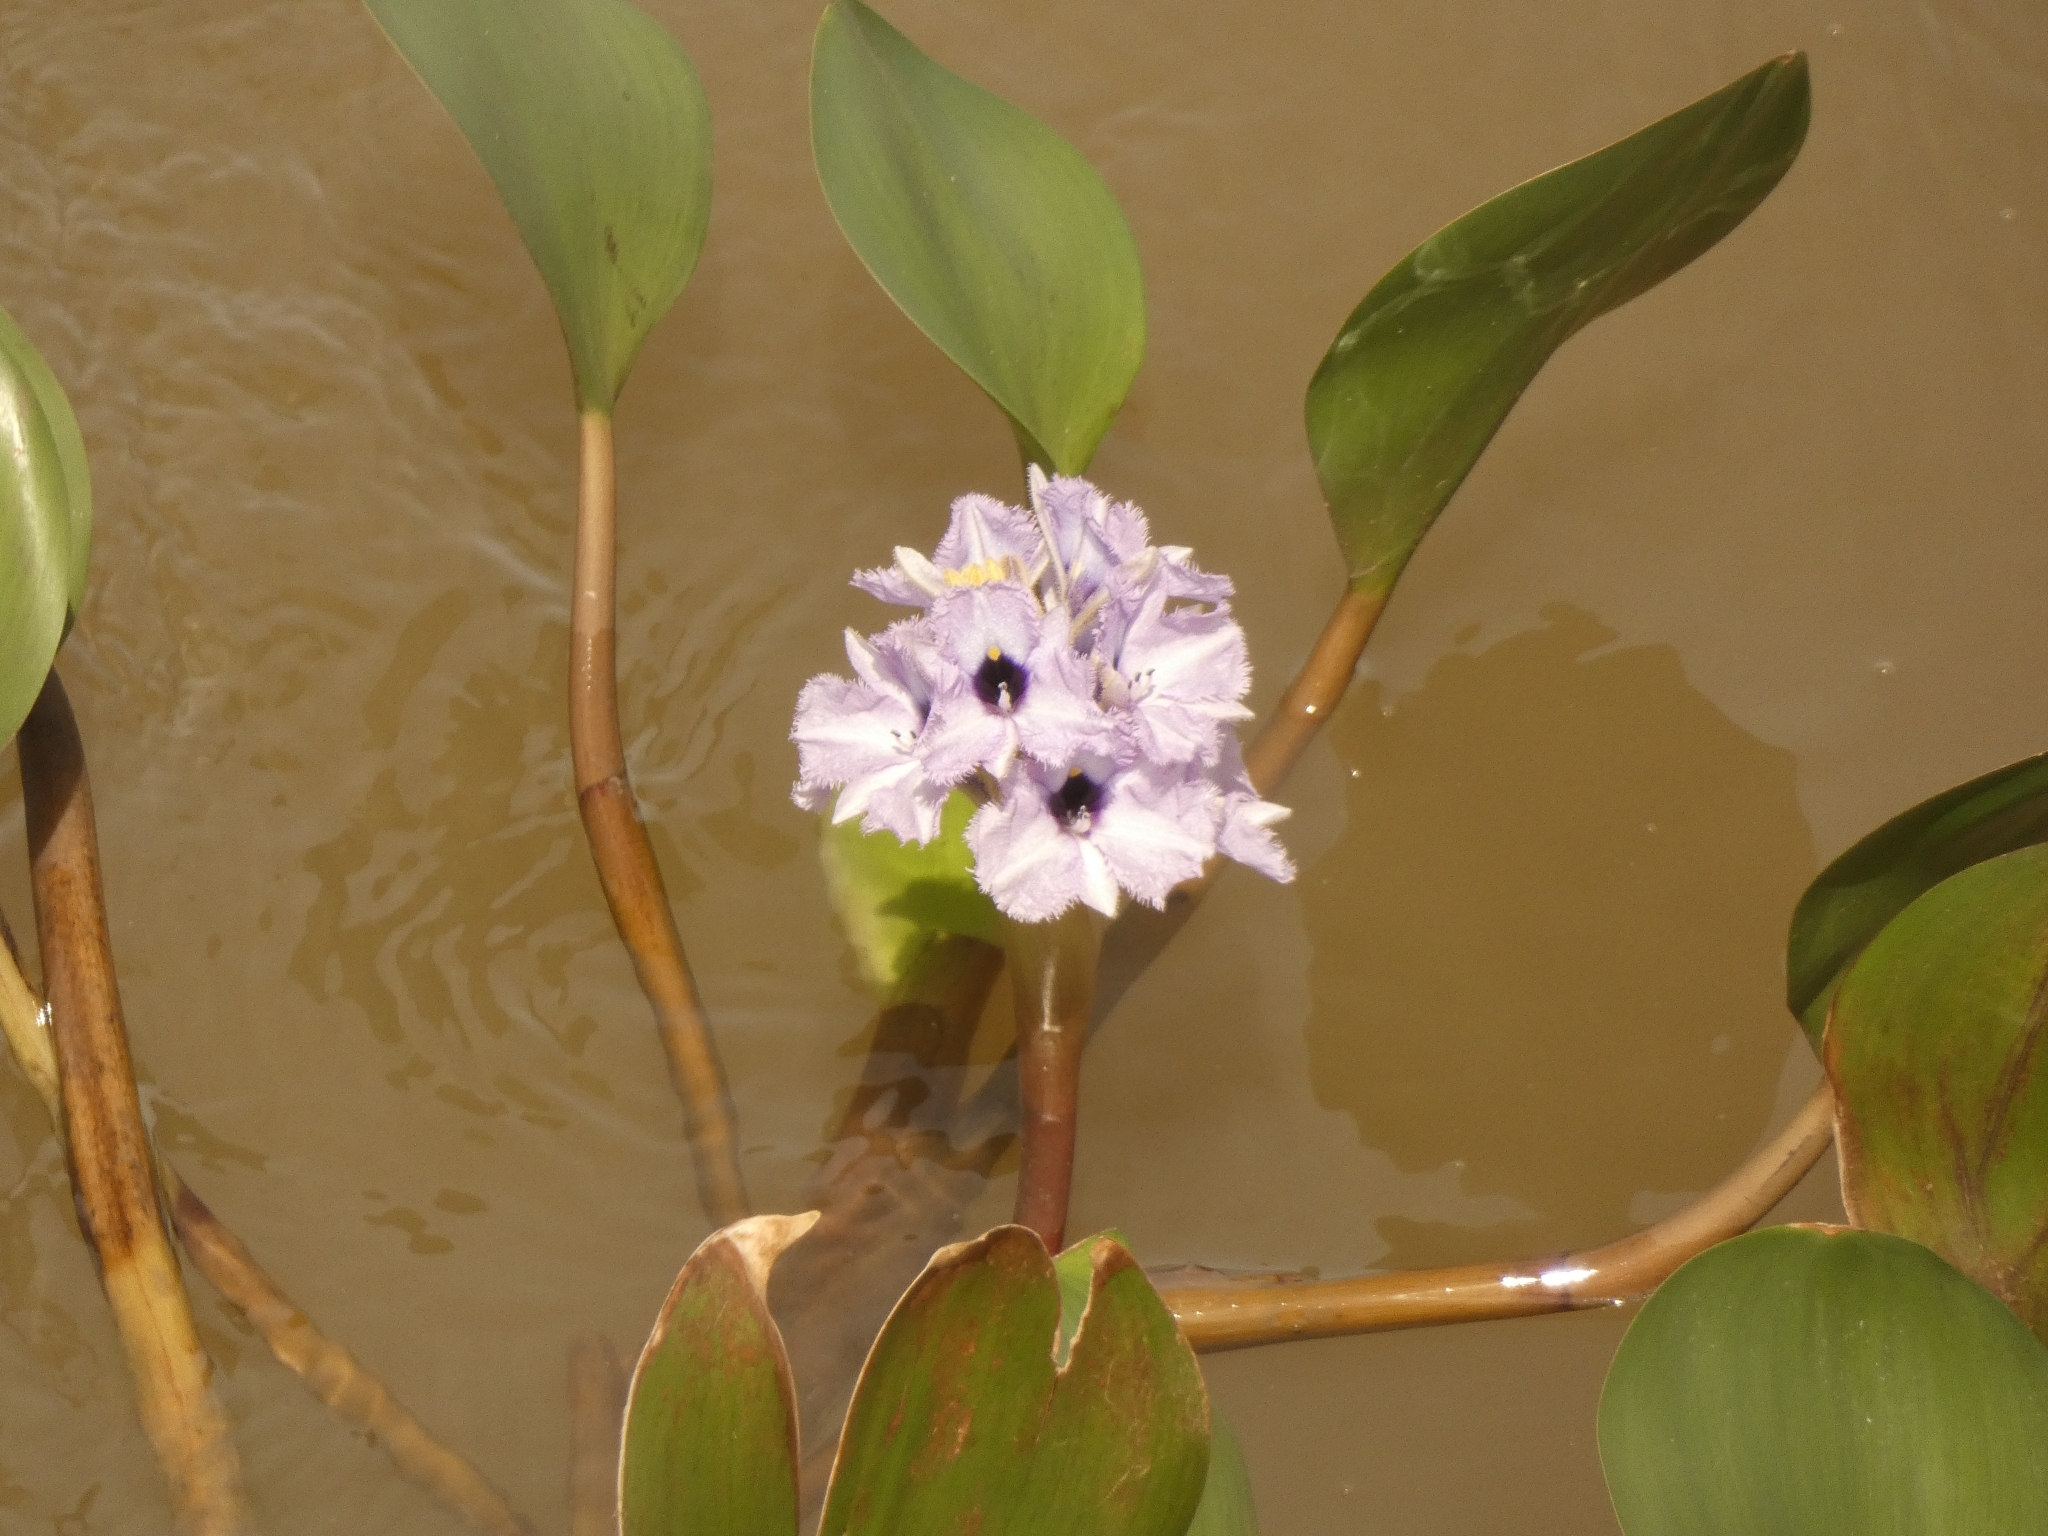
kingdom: Plantae
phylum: Tracheophyta
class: Liliopsida
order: Commelinales
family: Pontederiaceae
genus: Pontederia
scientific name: Pontederia azurea
